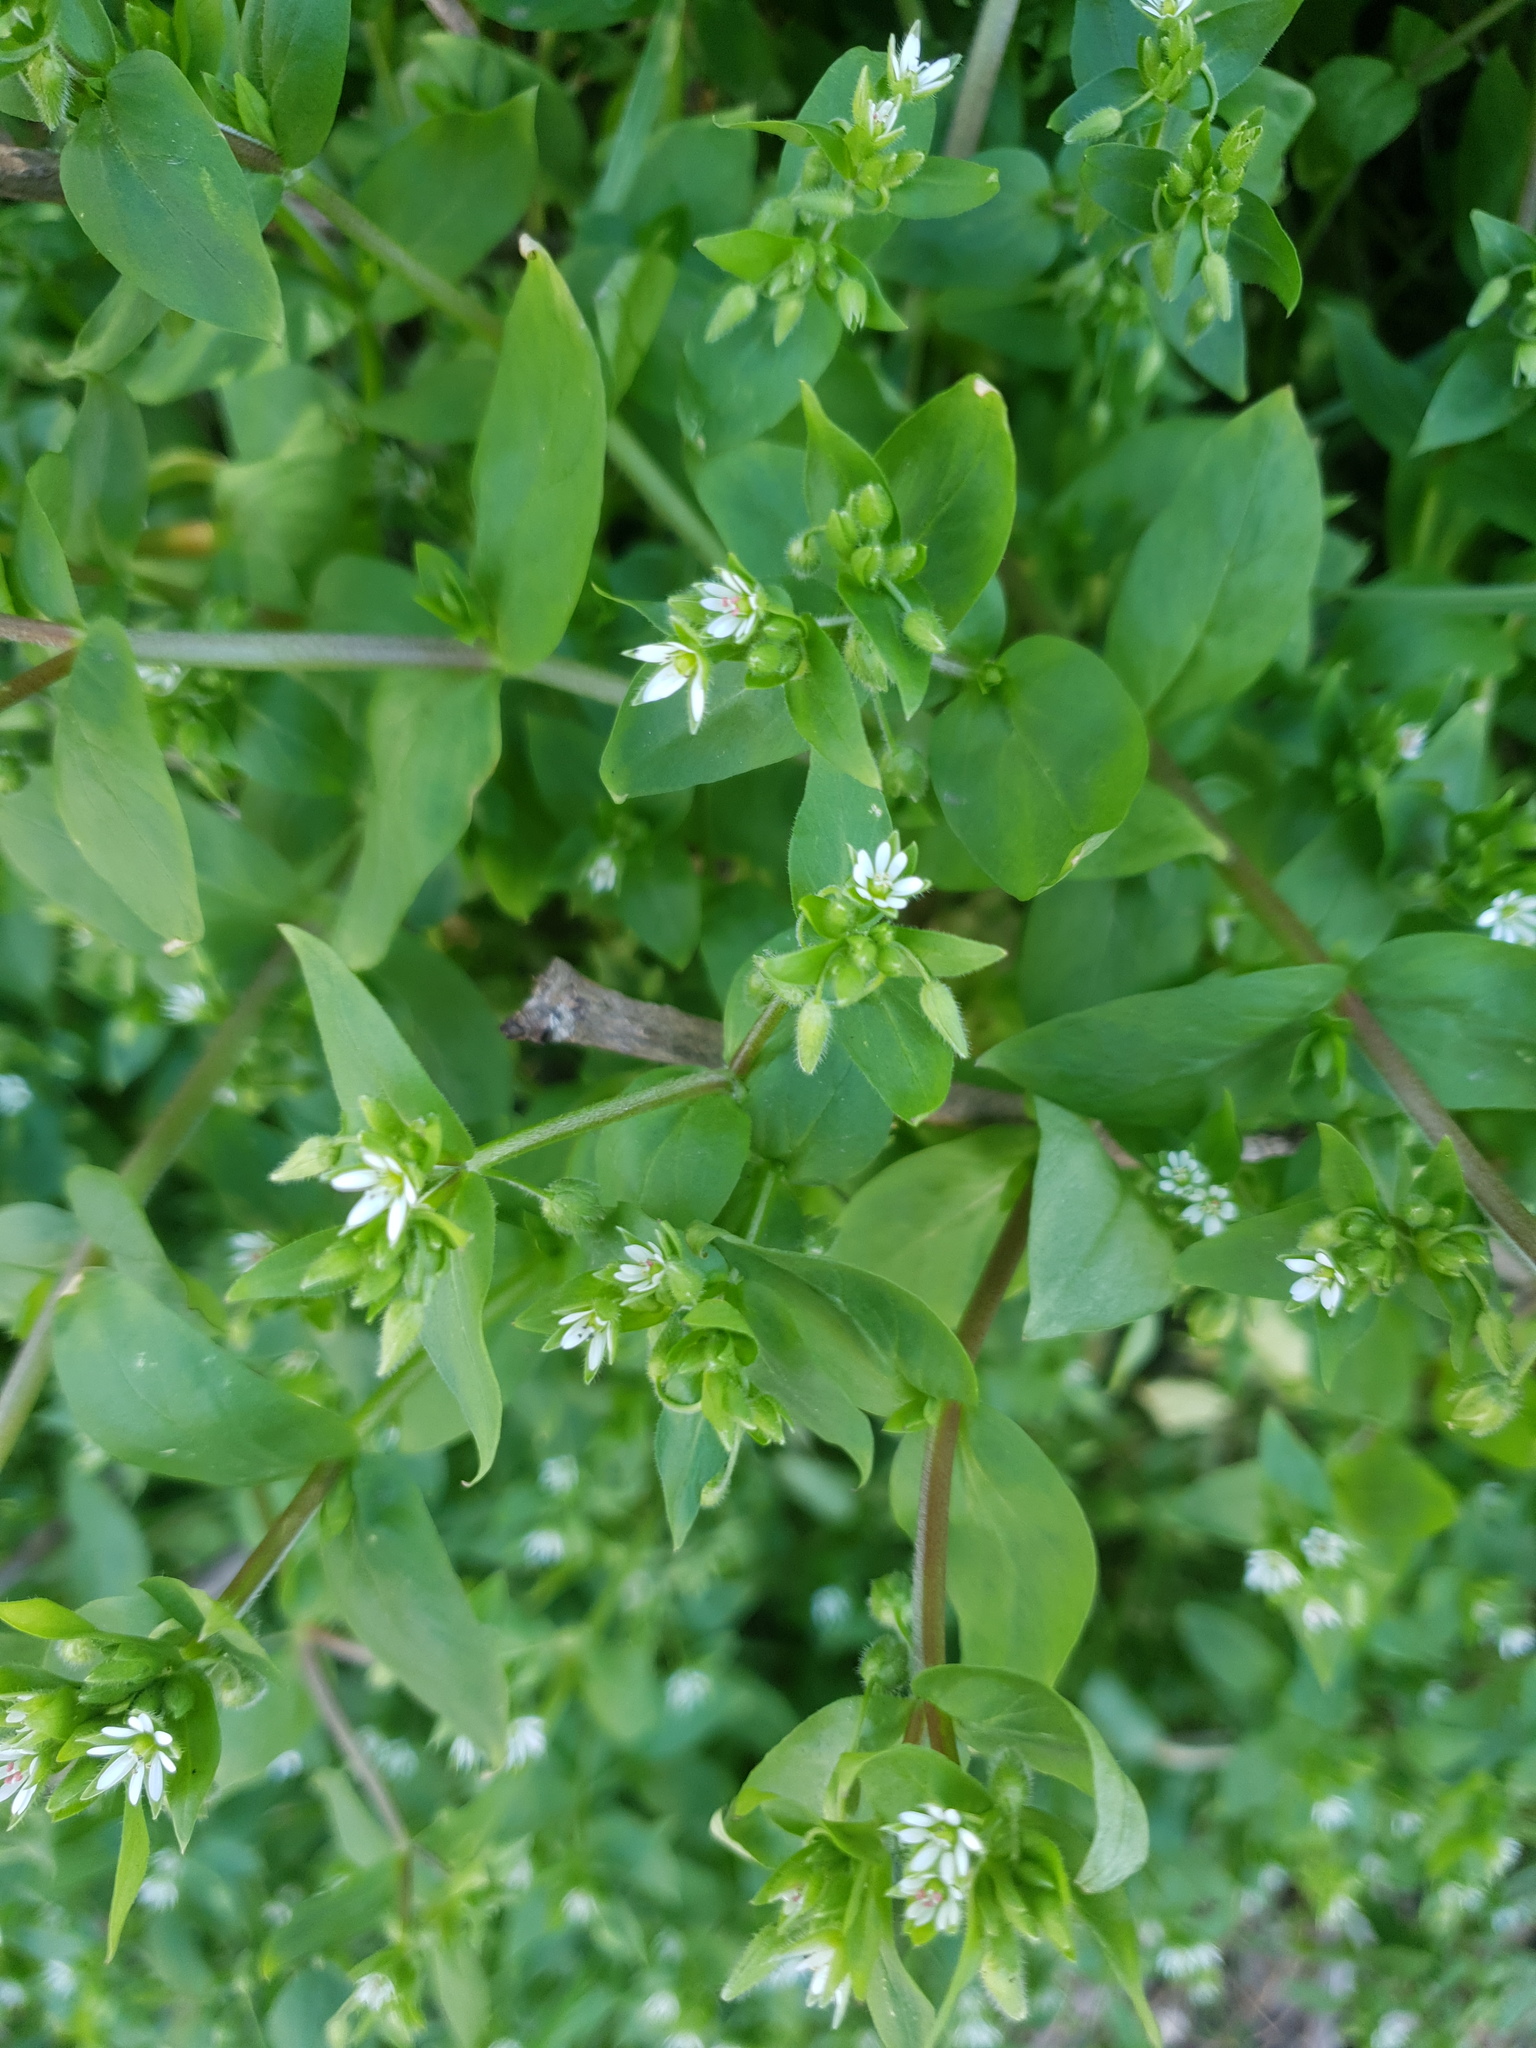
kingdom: Plantae
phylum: Tracheophyta
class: Magnoliopsida
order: Caryophyllales
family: Caryophyllaceae
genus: Stellaria
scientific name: Stellaria media
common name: Common chickweed
